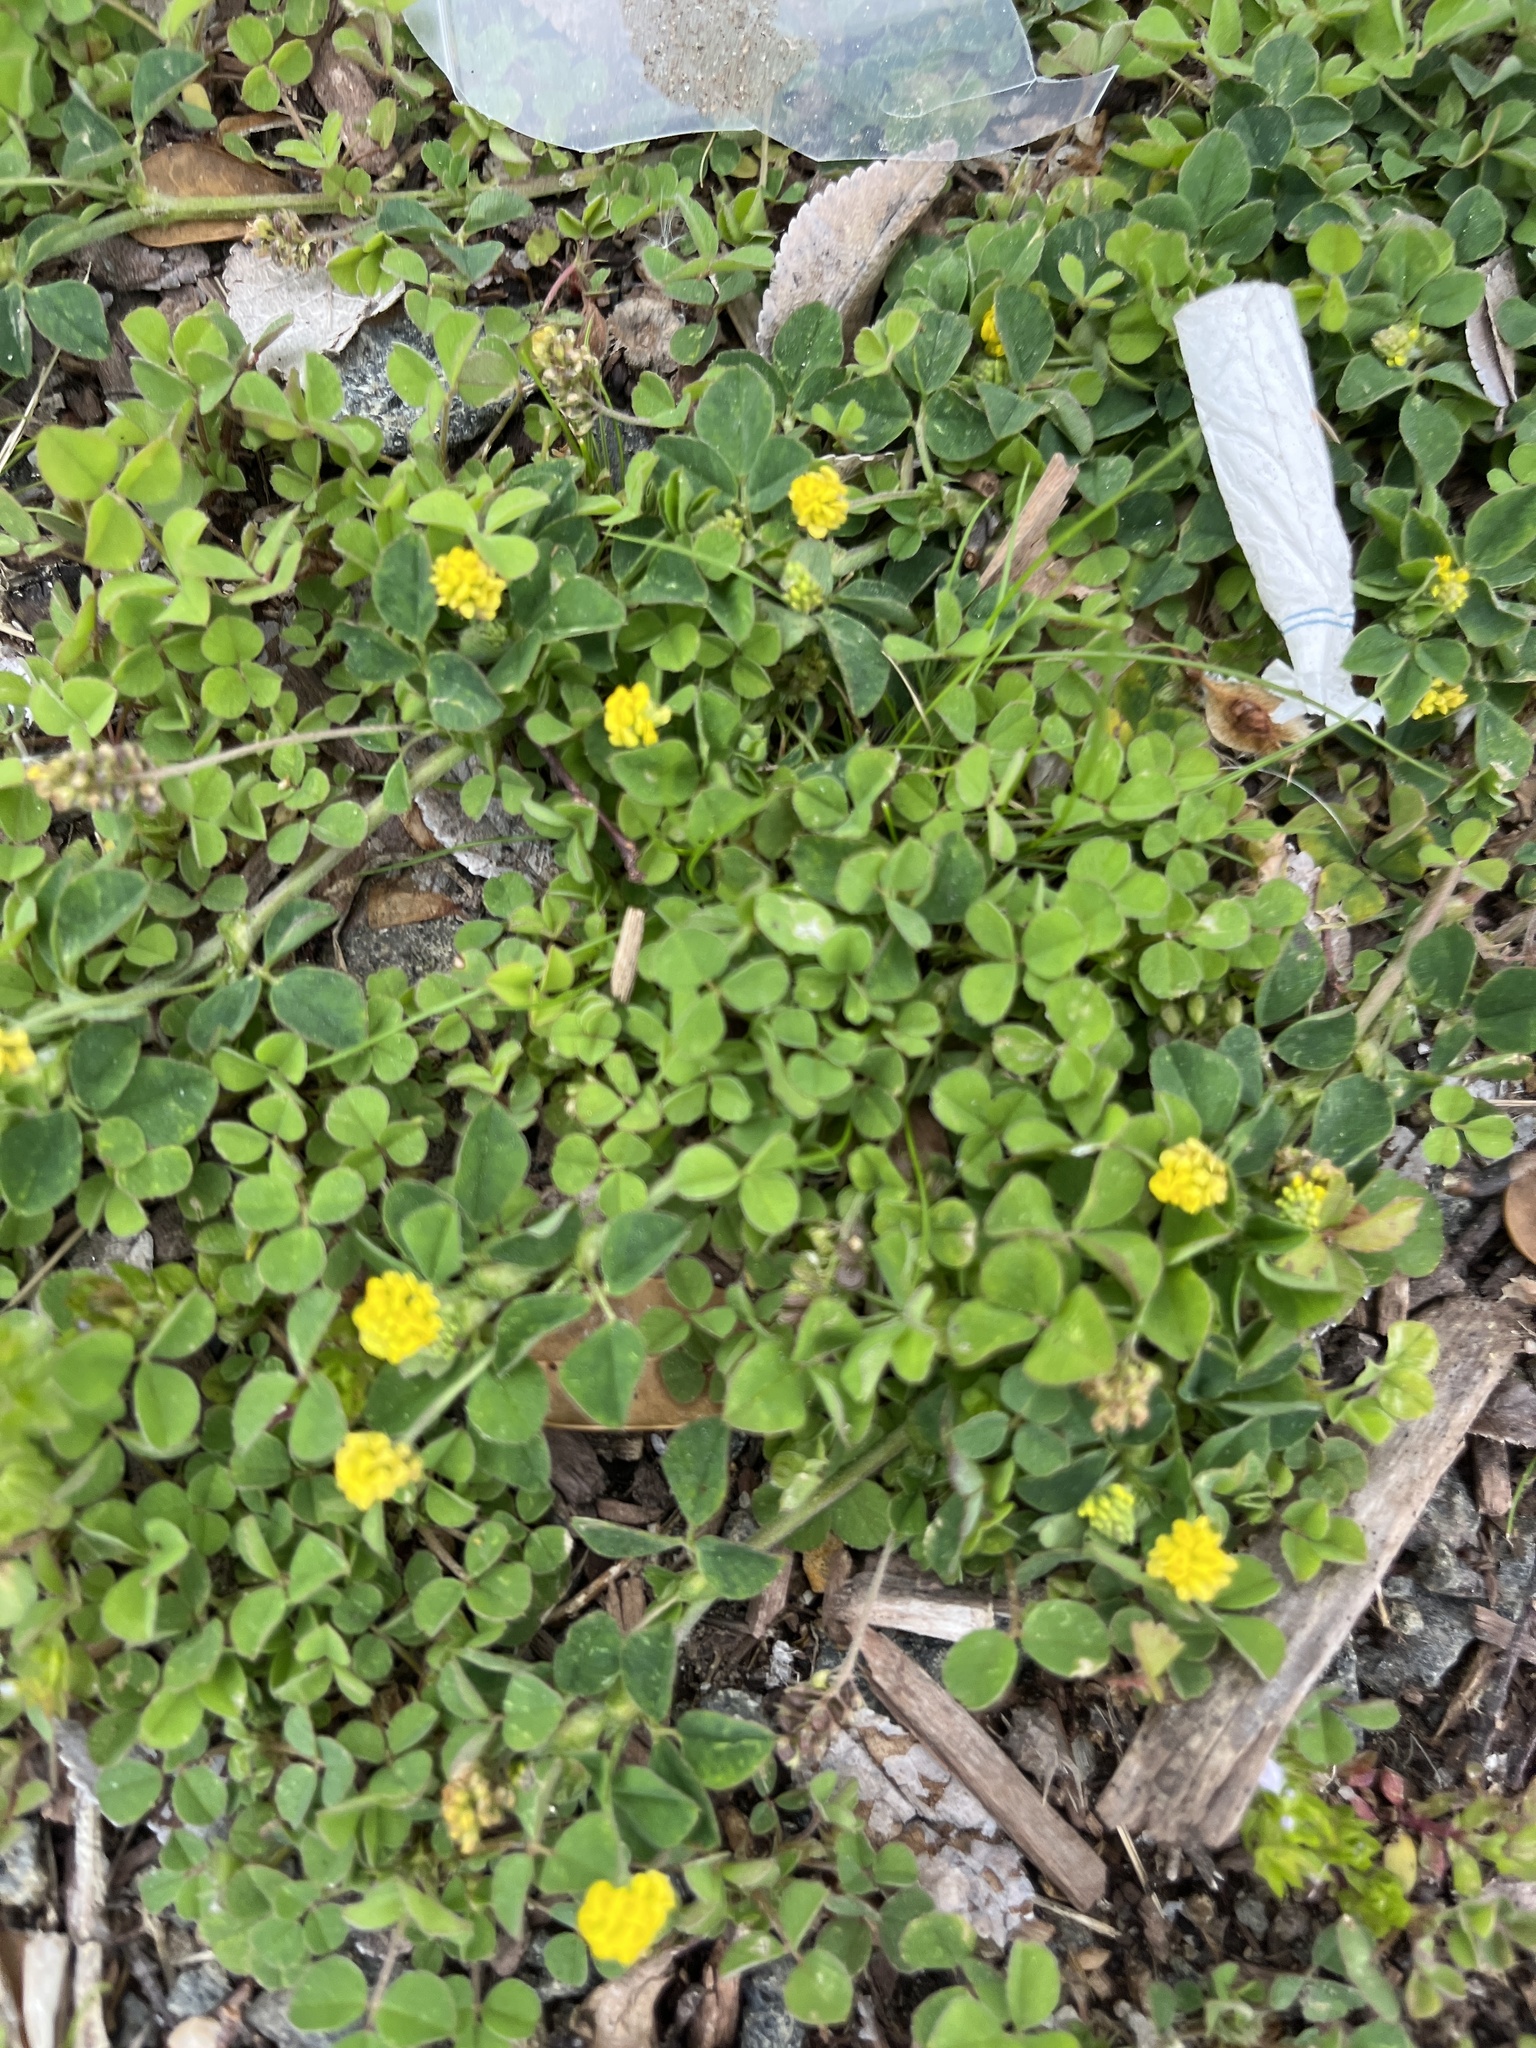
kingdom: Plantae
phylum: Tracheophyta
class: Magnoliopsida
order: Fabales
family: Fabaceae
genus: Medicago
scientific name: Medicago lupulina
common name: Black medick
